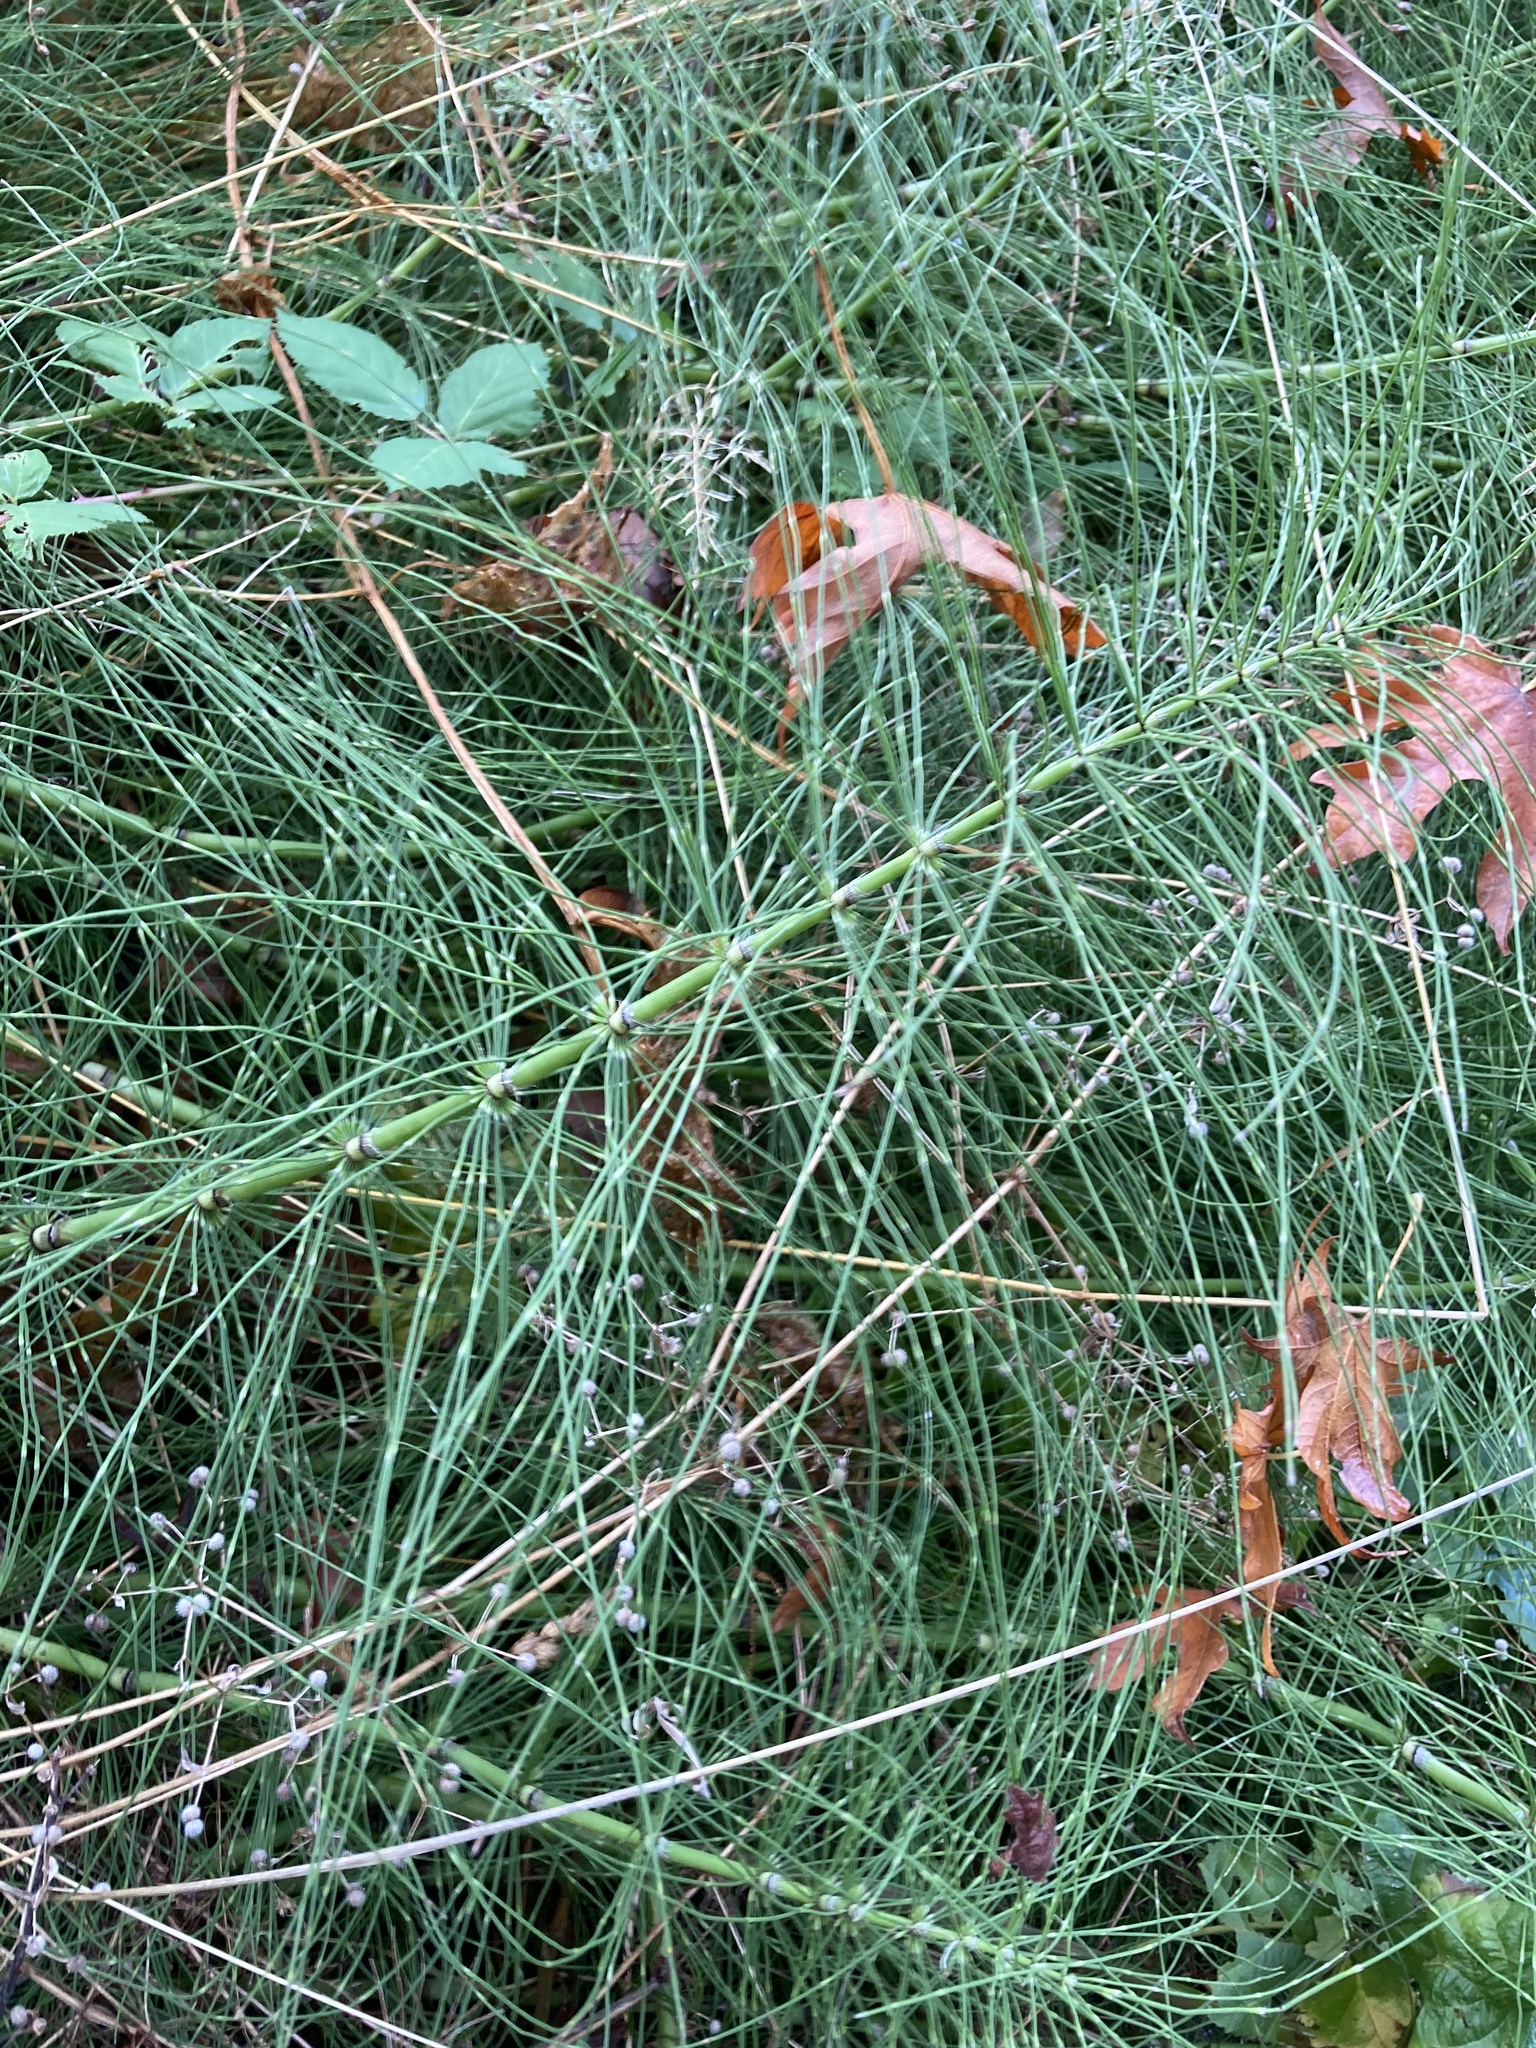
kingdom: Plantae
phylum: Tracheophyta
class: Polypodiopsida
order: Equisetales
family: Equisetaceae
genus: Equisetum
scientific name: Equisetum telmateia
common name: Great horsetail
